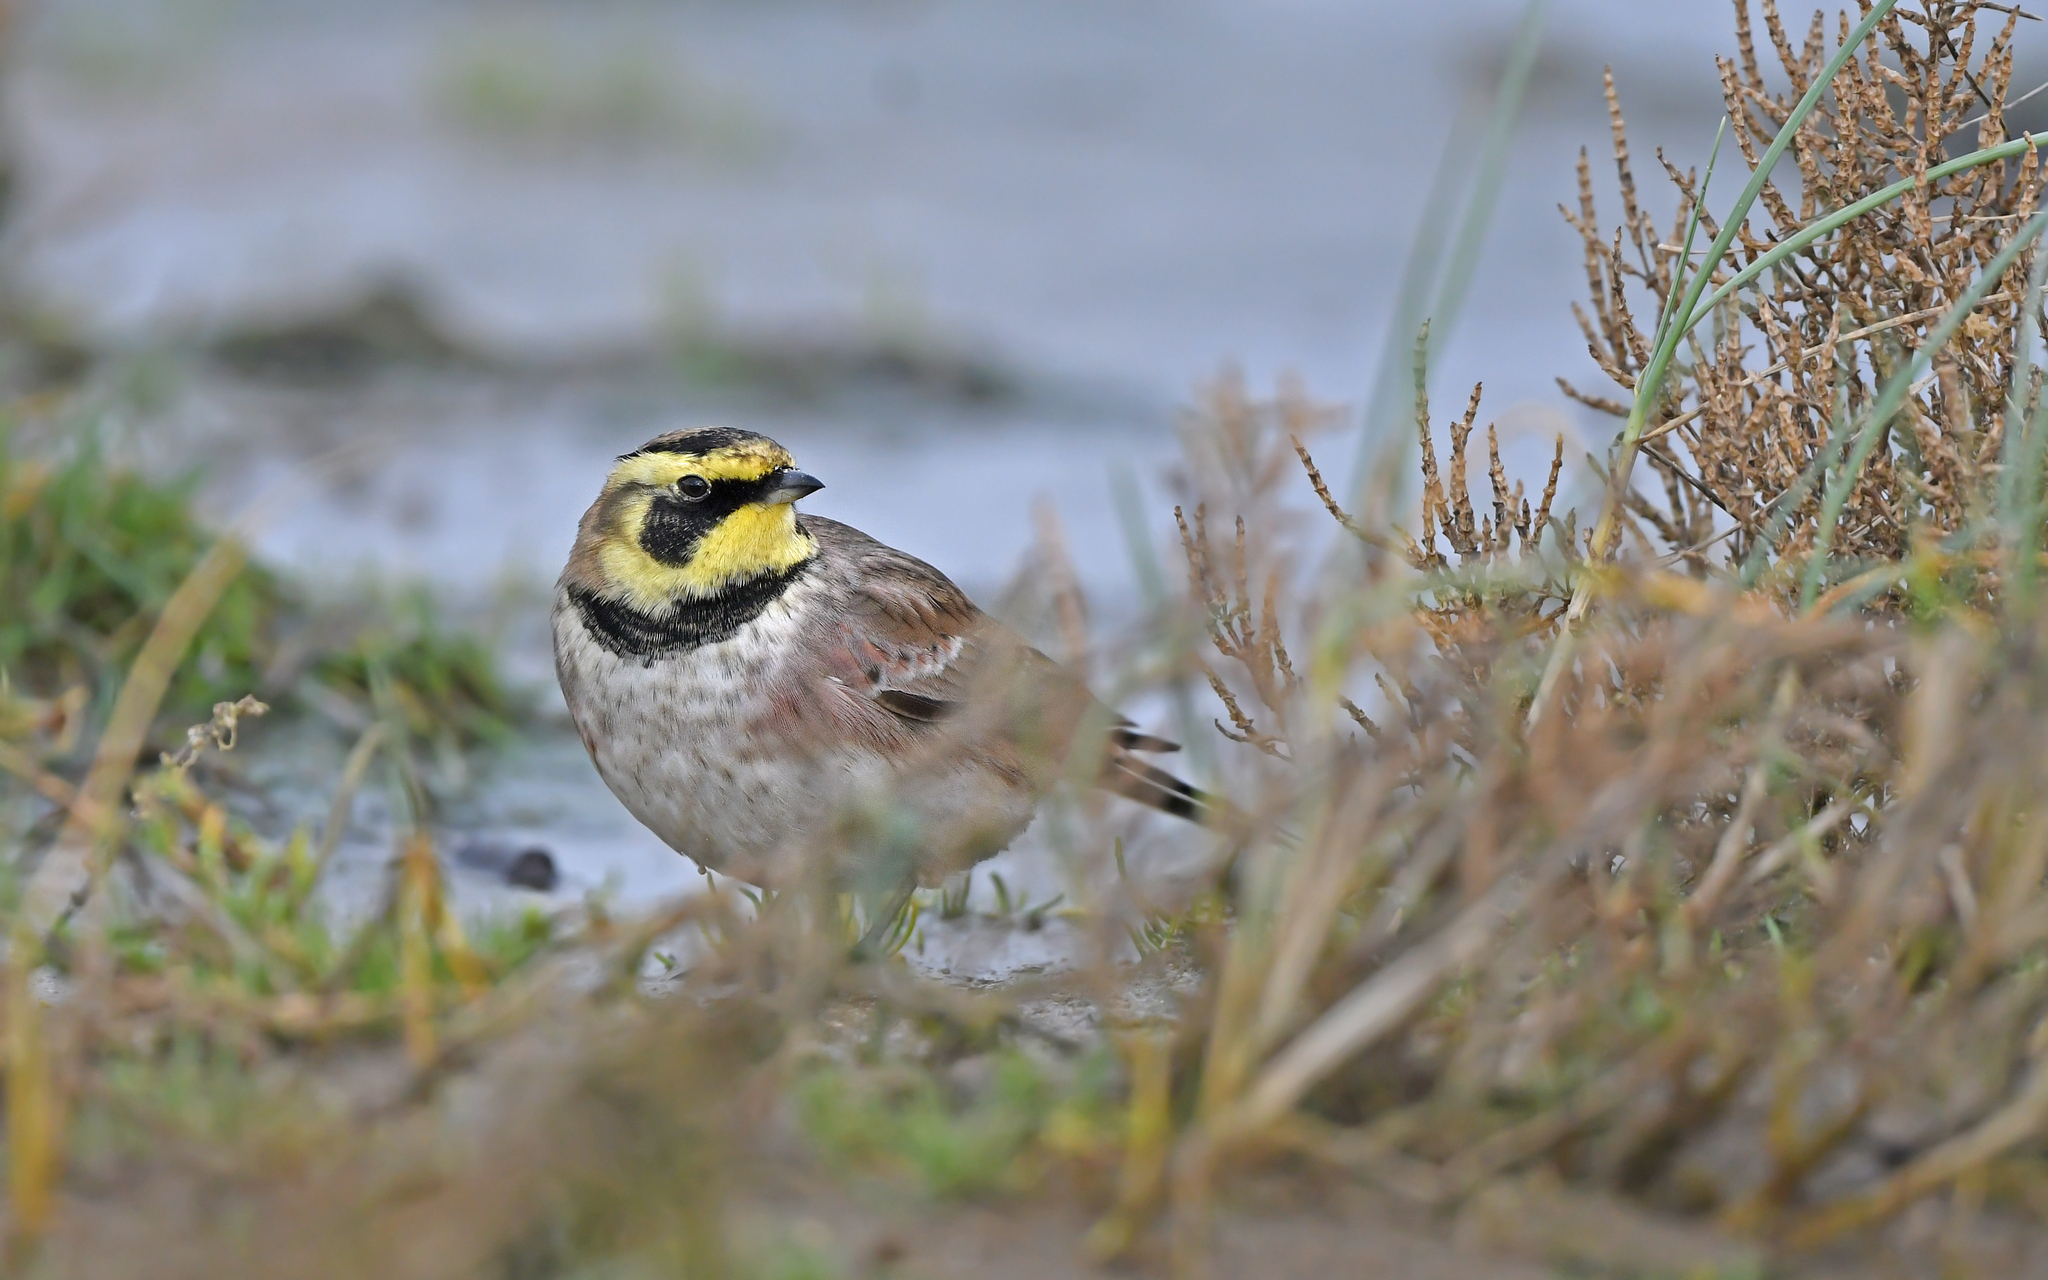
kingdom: Animalia
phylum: Chordata
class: Aves
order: Passeriformes
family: Alaudidae
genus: Eremophila
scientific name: Eremophila alpestris
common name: Horned lark
